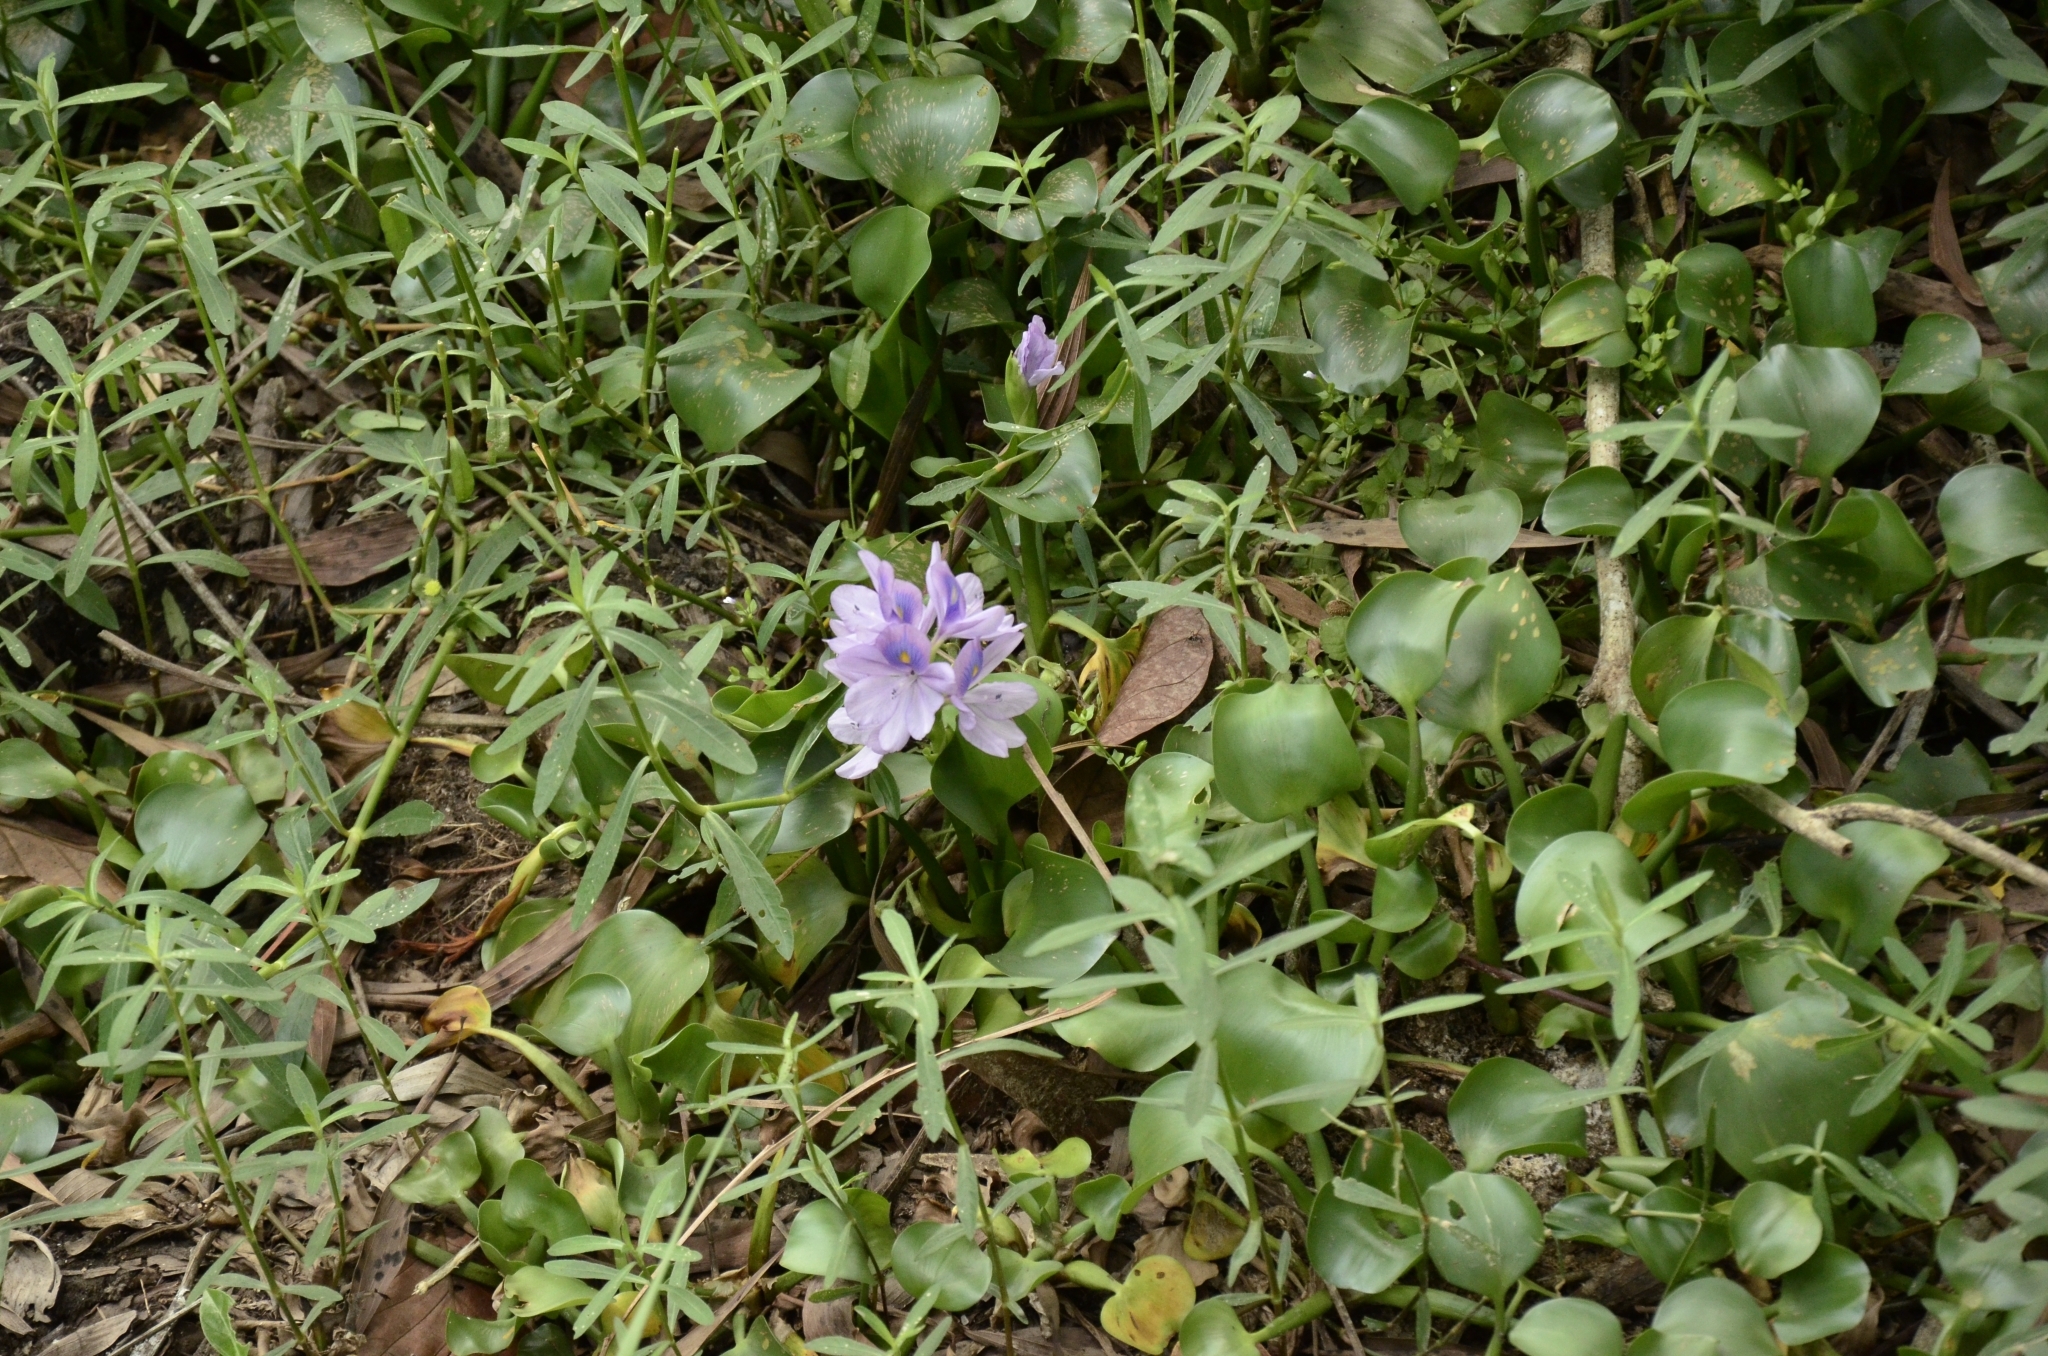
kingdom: Plantae
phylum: Tracheophyta
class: Liliopsida
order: Commelinales
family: Pontederiaceae
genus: Pontederia
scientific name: Pontederia crassipes
